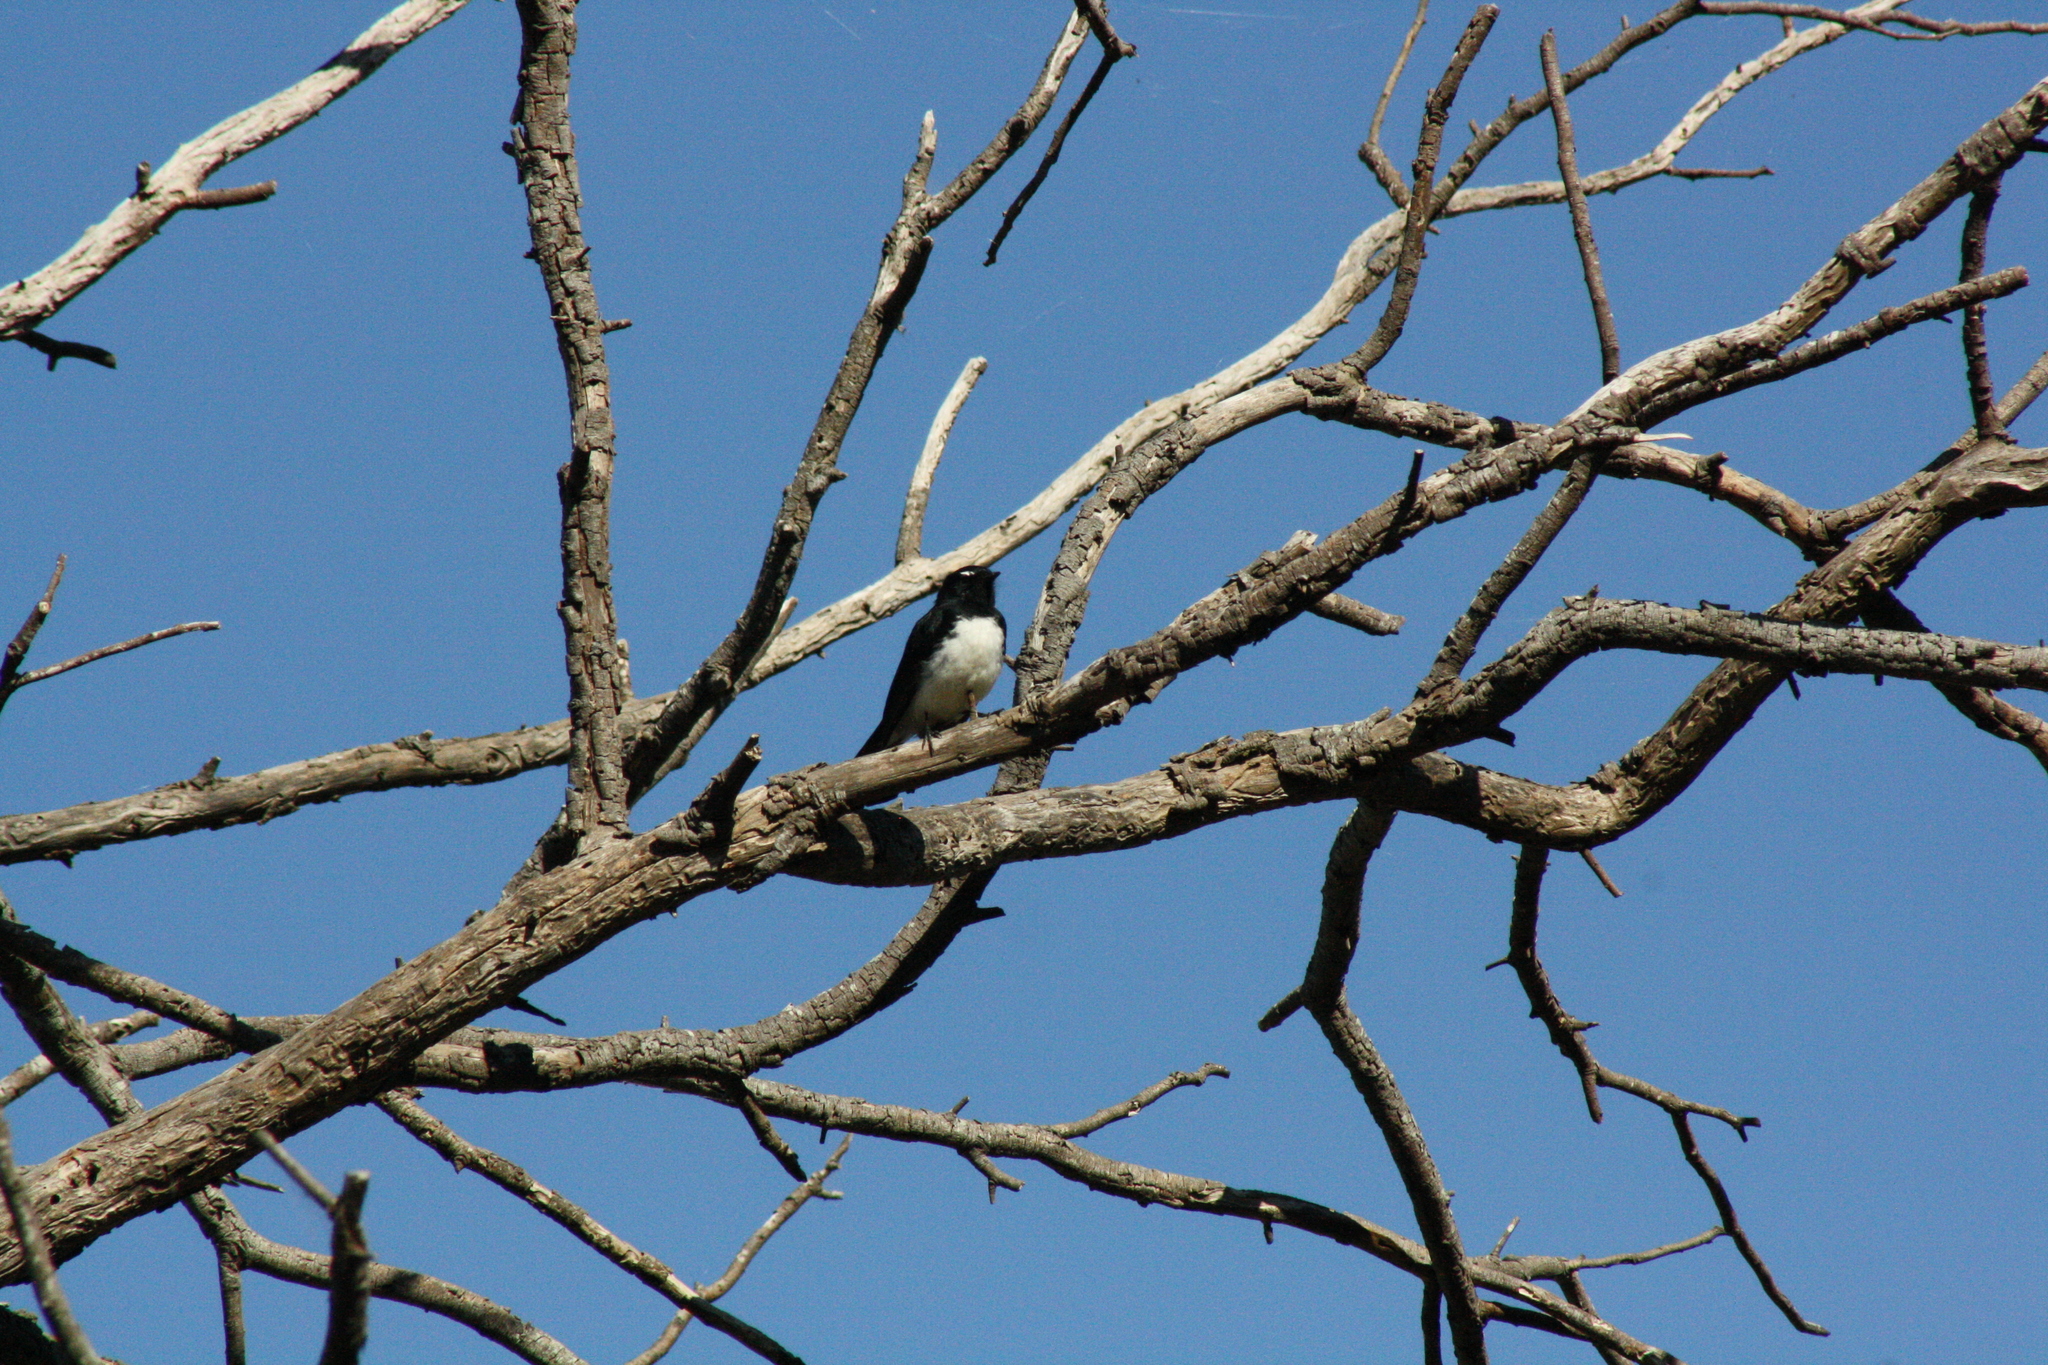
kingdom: Animalia
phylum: Chordata
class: Aves
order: Passeriformes
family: Rhipiduridae
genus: Rhipidura
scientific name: Rhipidura leucophrys
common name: Willie wagtail
